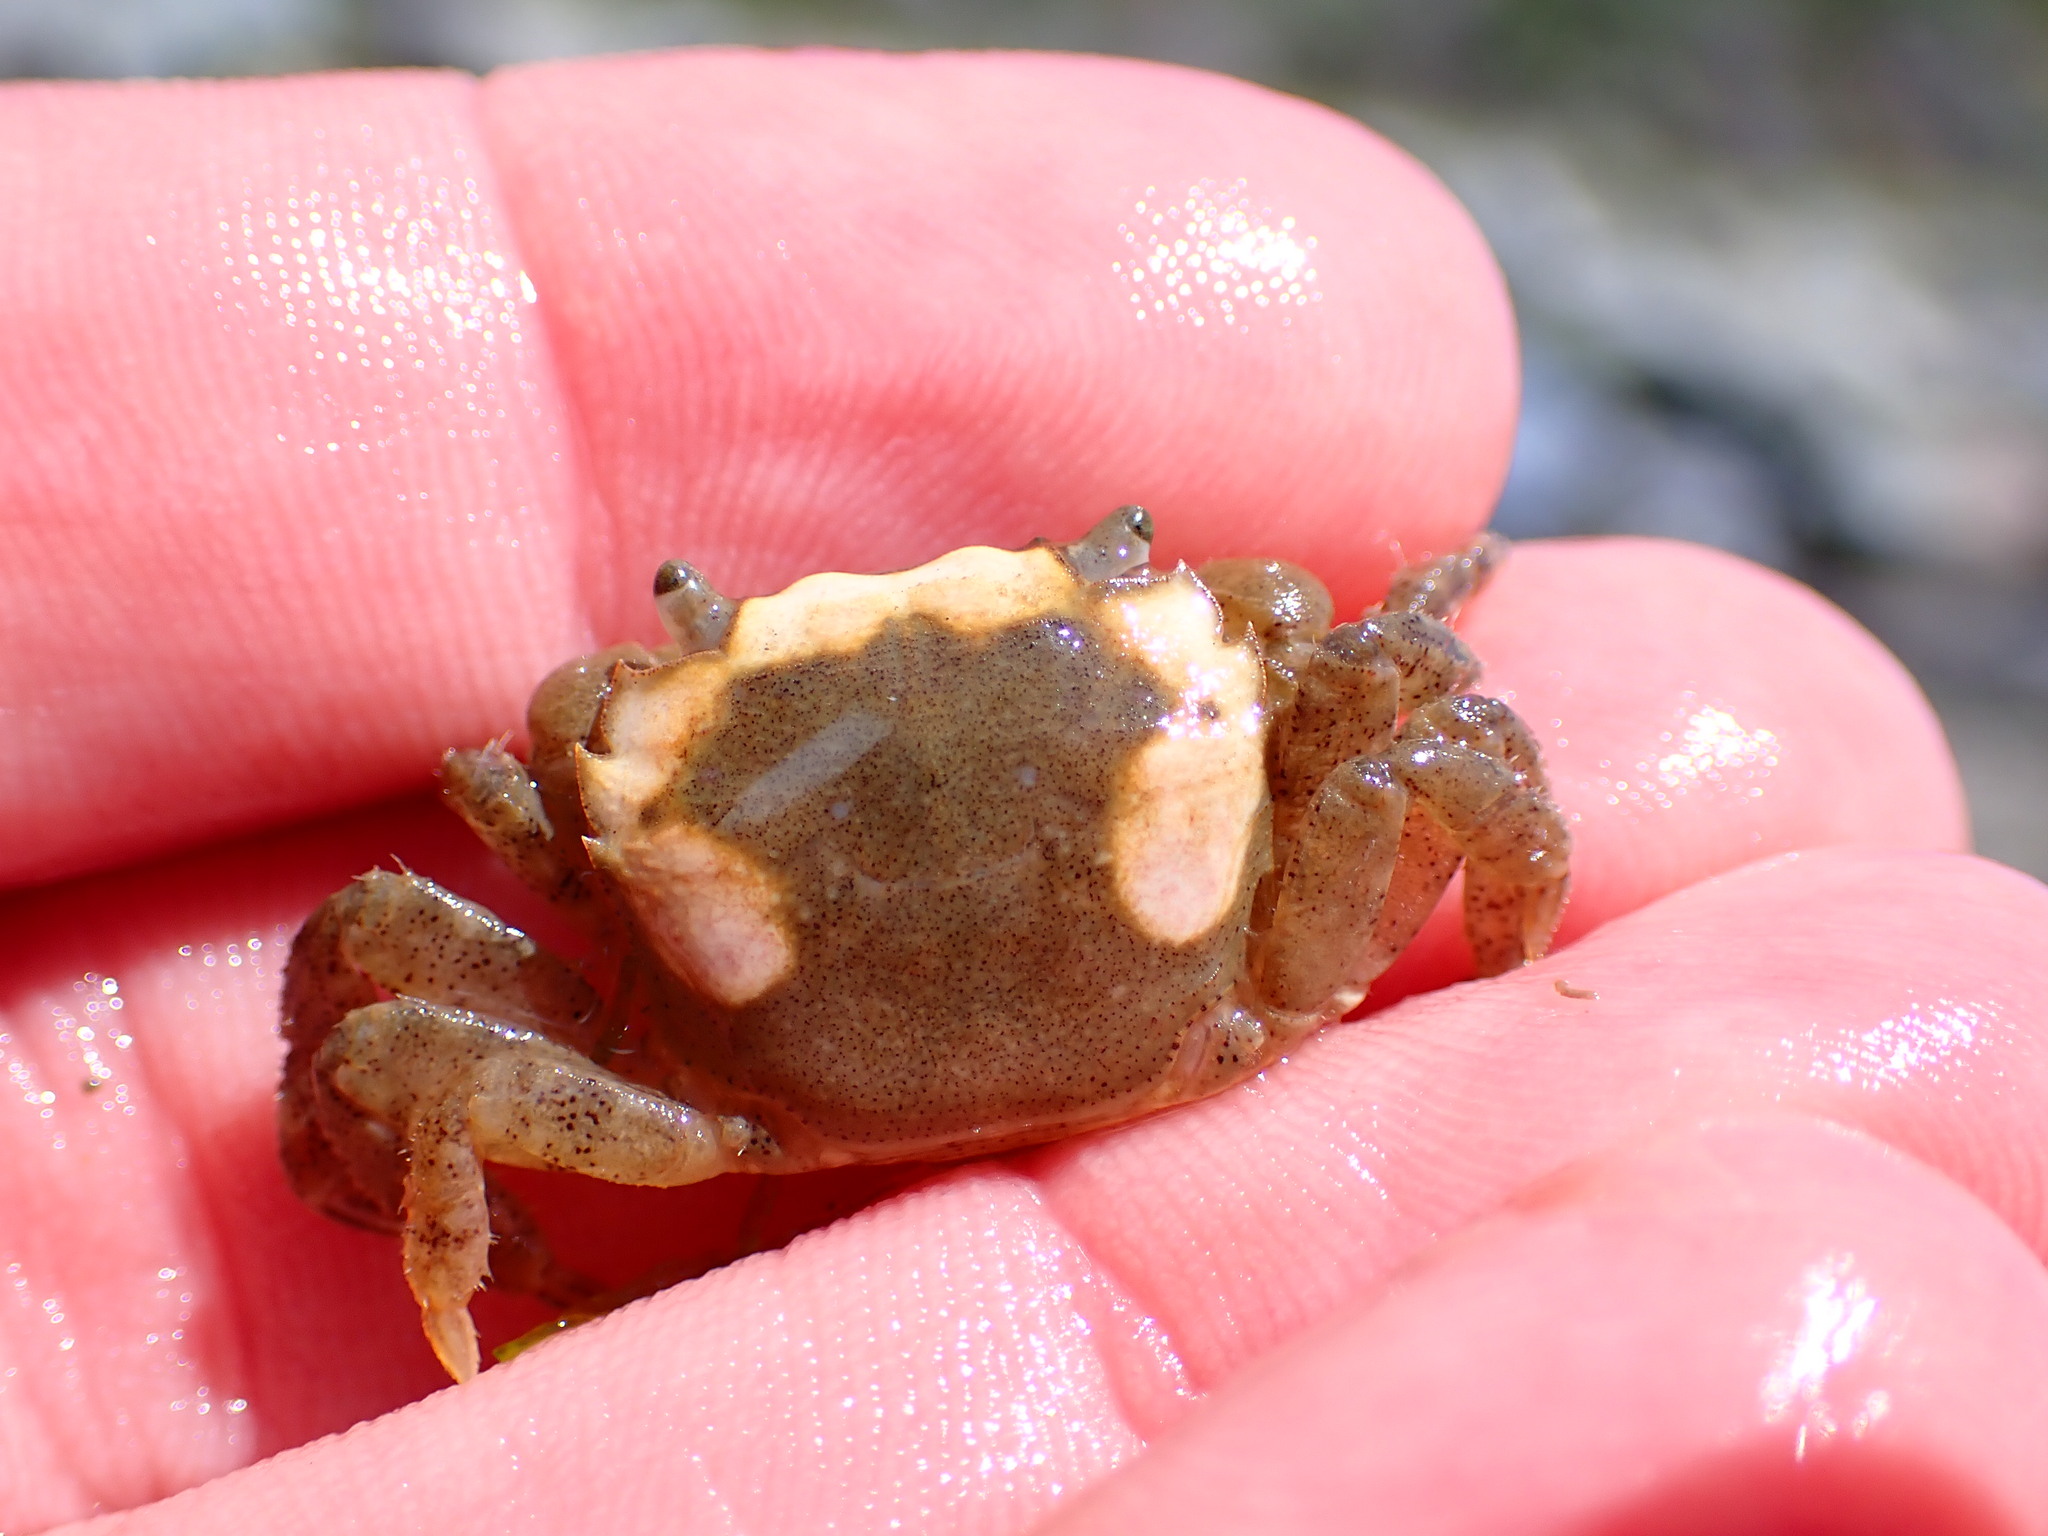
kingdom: Animalia
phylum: Arthropoda
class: Malacostraca
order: Decapoda
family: Varunidae
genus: Hemigrapsus
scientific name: Hemigrapsus oregonensis
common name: Yellow shore crab
